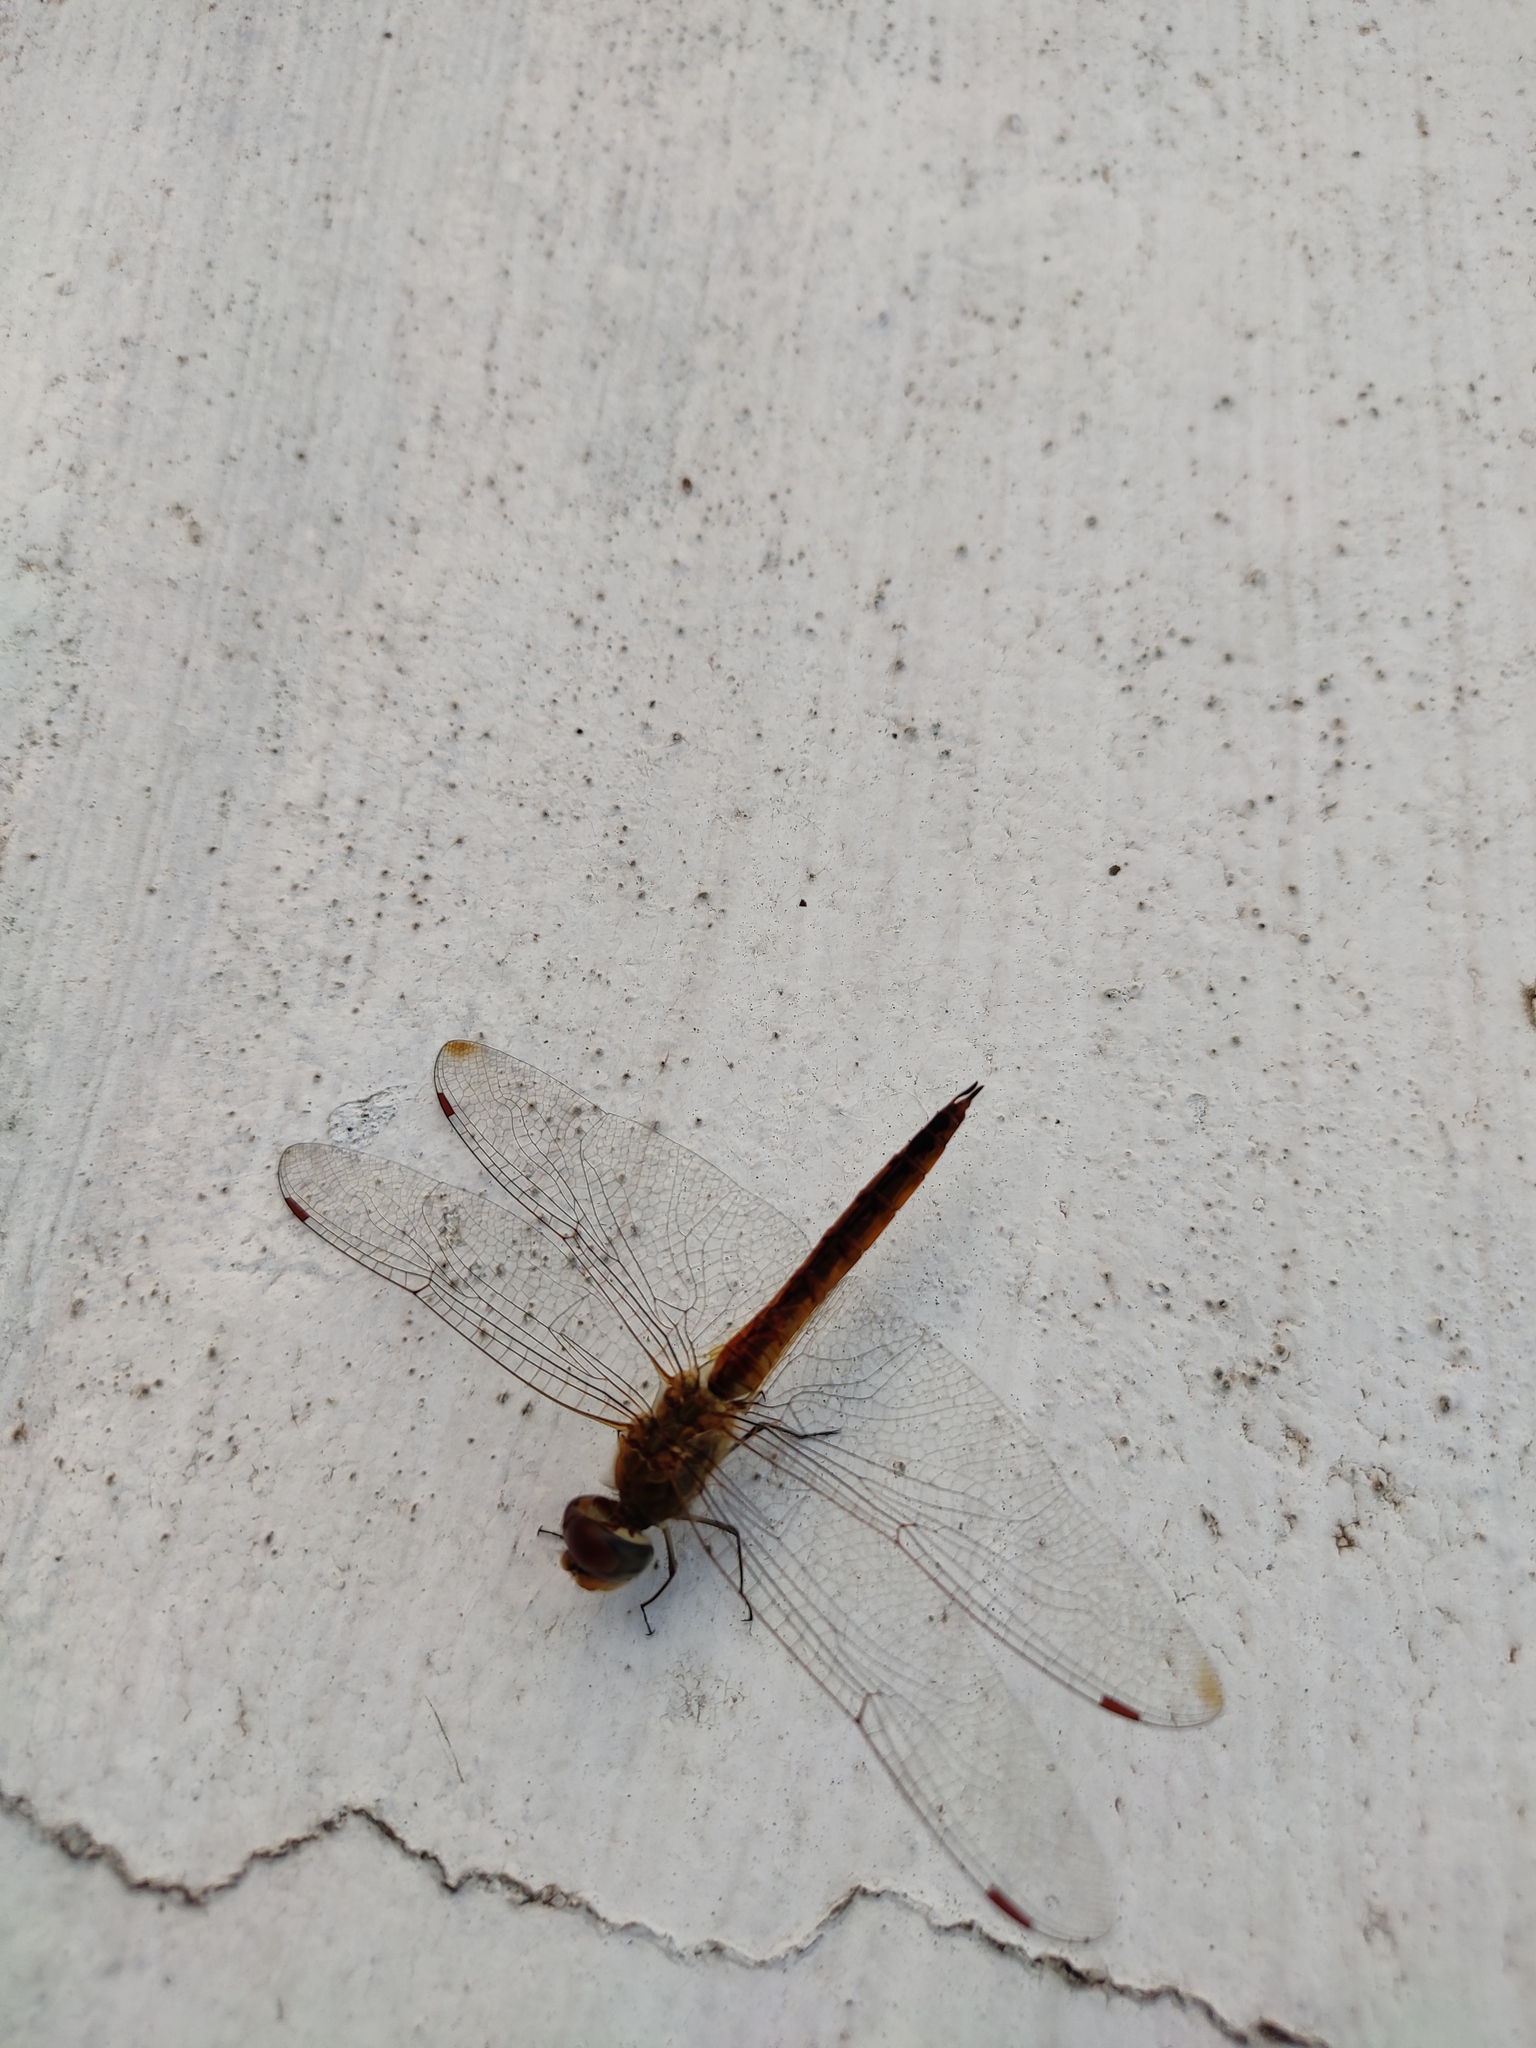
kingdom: Animalia
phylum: Arthropoda
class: Insecta
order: Odonata
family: Libellulidae
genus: Pantala
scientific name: Pantala flavescens
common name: Wandering glider
